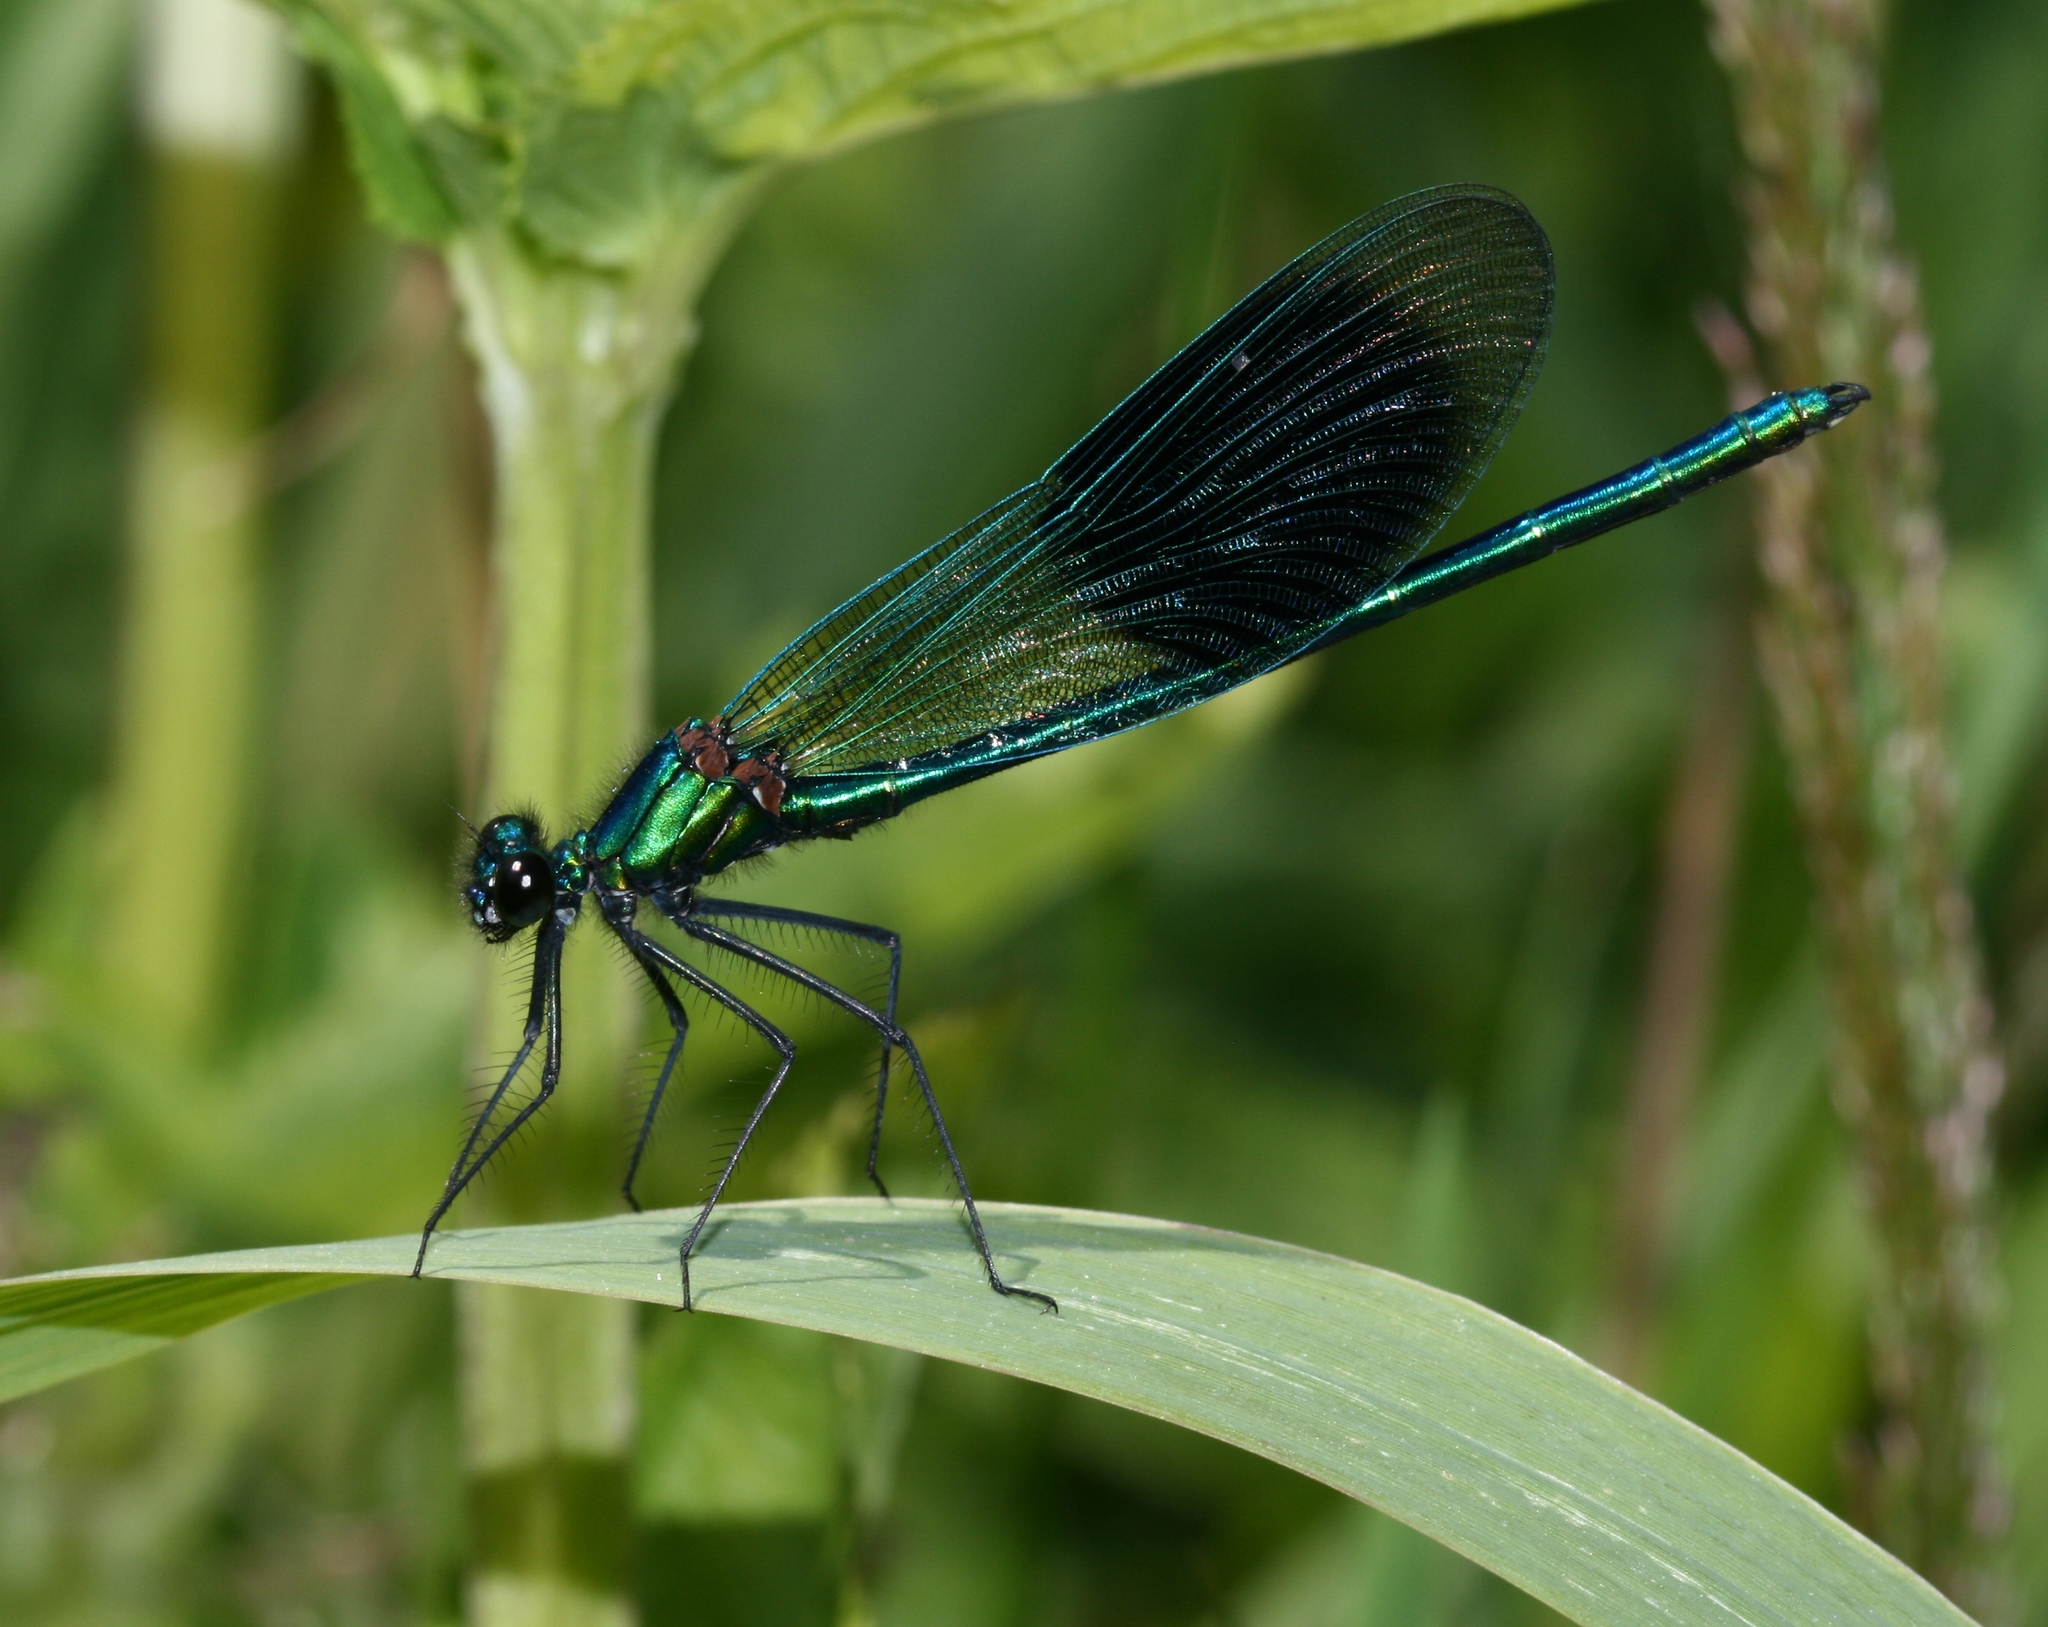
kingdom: Animalia
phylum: Arthropoda
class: Insecta
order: Odonata
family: Calopterygidae
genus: Calopteryx
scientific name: Calopteryx splendens
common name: Banded demoiselle
